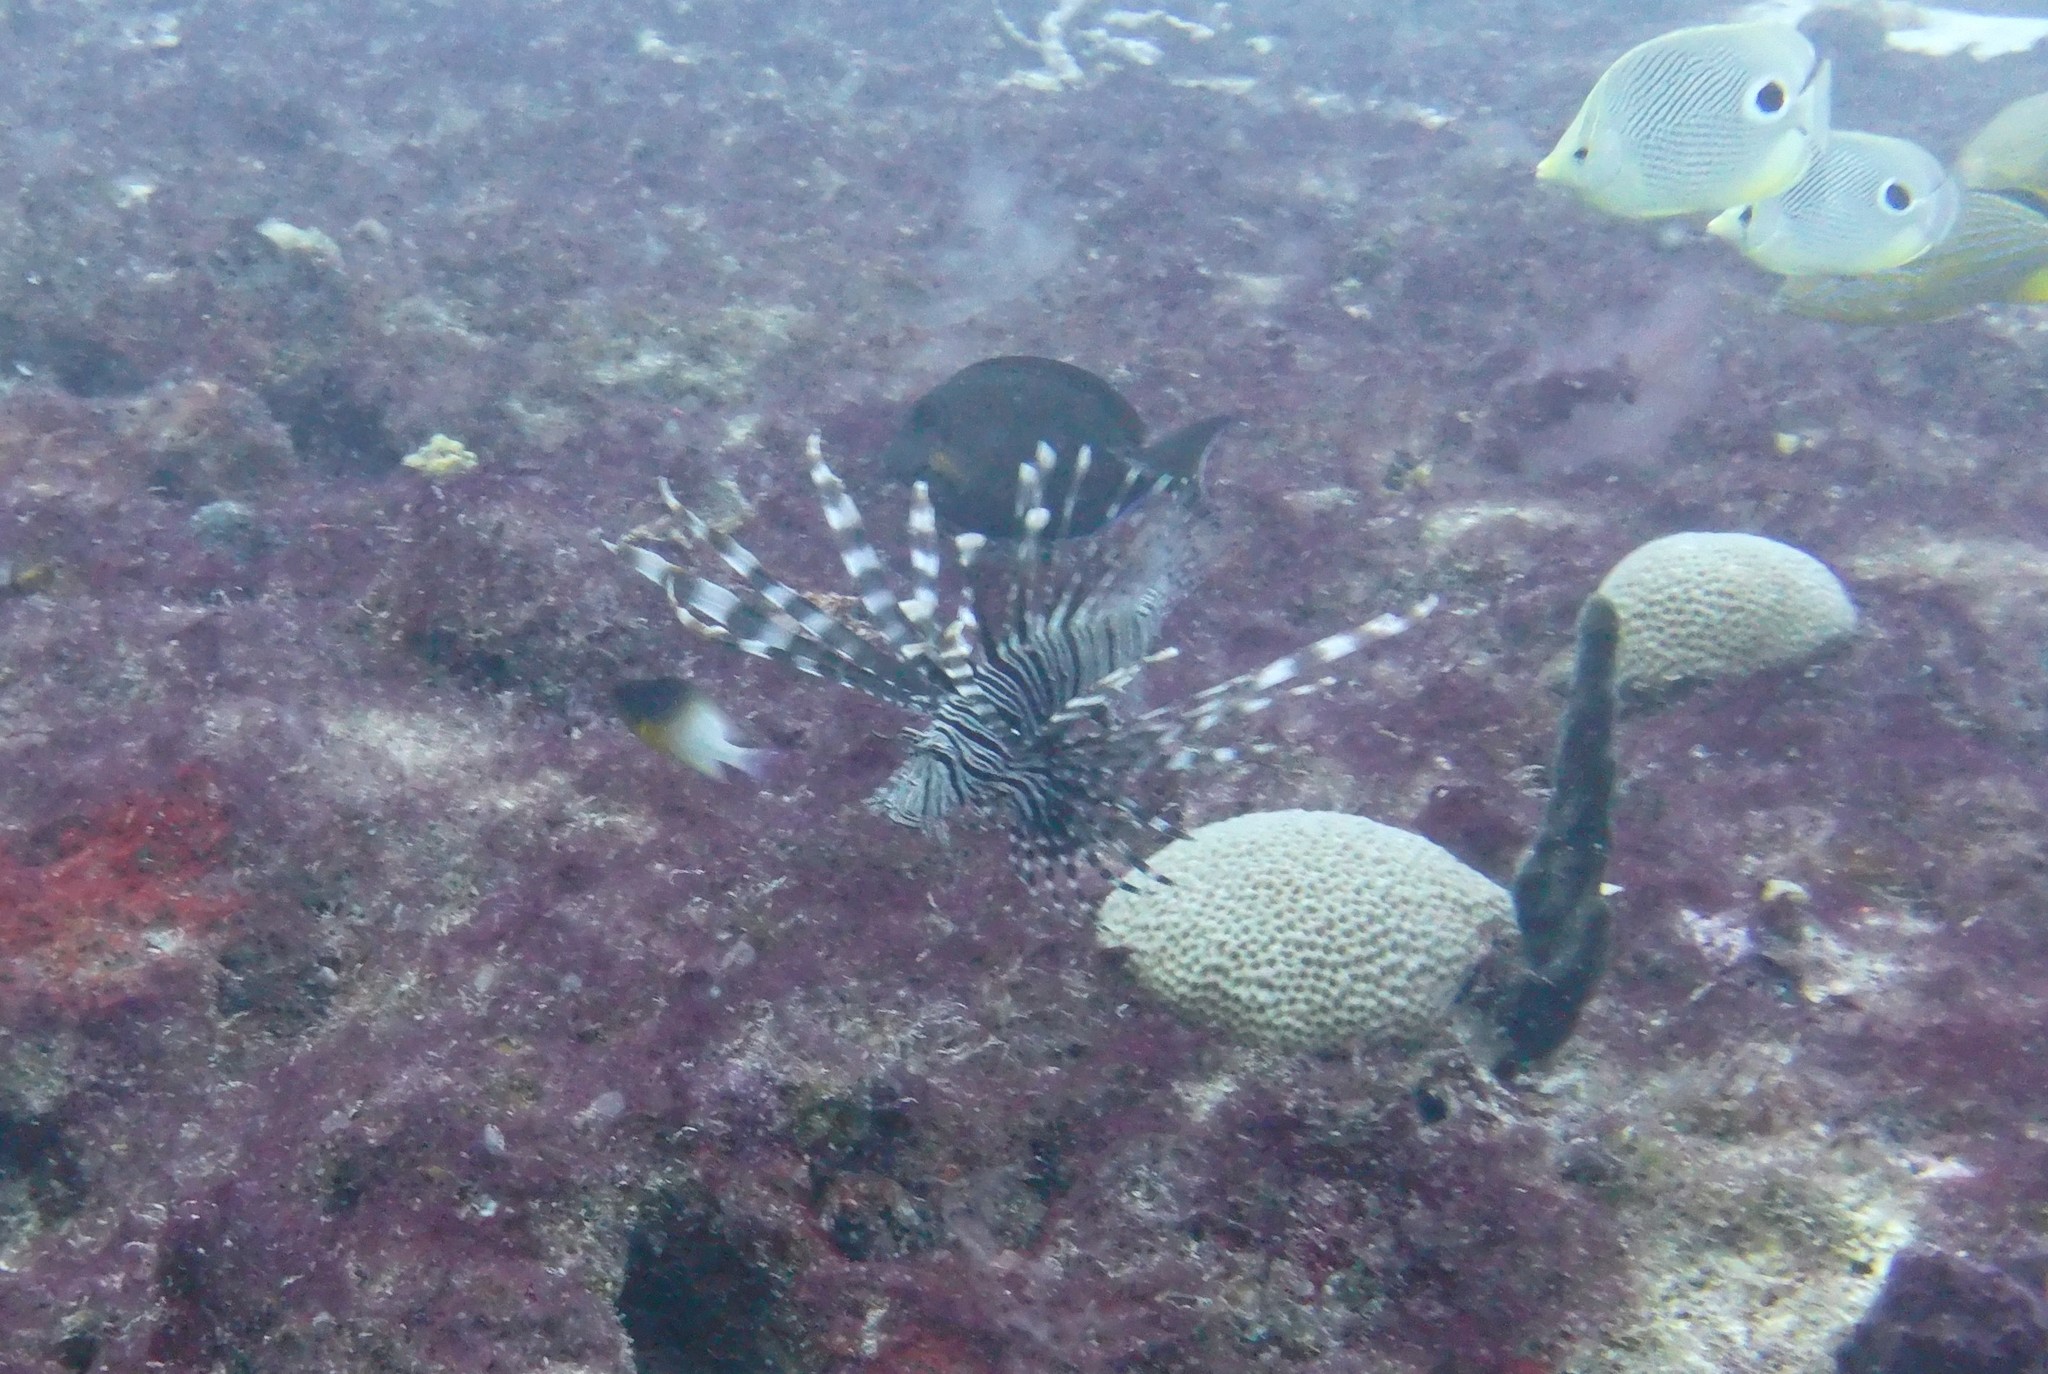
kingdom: Animalia
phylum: Chordata
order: Scorpaeniformes
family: Scorpaenidae
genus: Pterois
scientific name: Pterois volitans
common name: Lionfish
